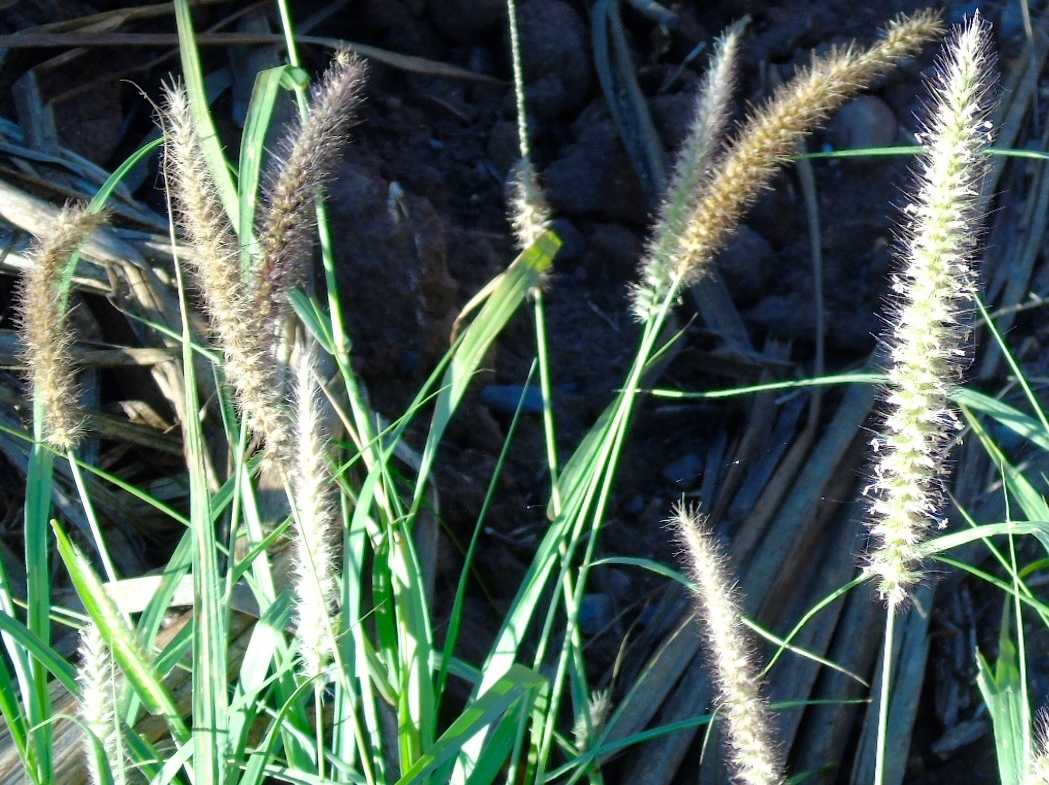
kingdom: Plantae
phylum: Tracheophyta
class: Liliopsida
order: Poales
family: Poaceae
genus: Cenchrus
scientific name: Cenchrus ciliaris
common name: Buffelgrass
